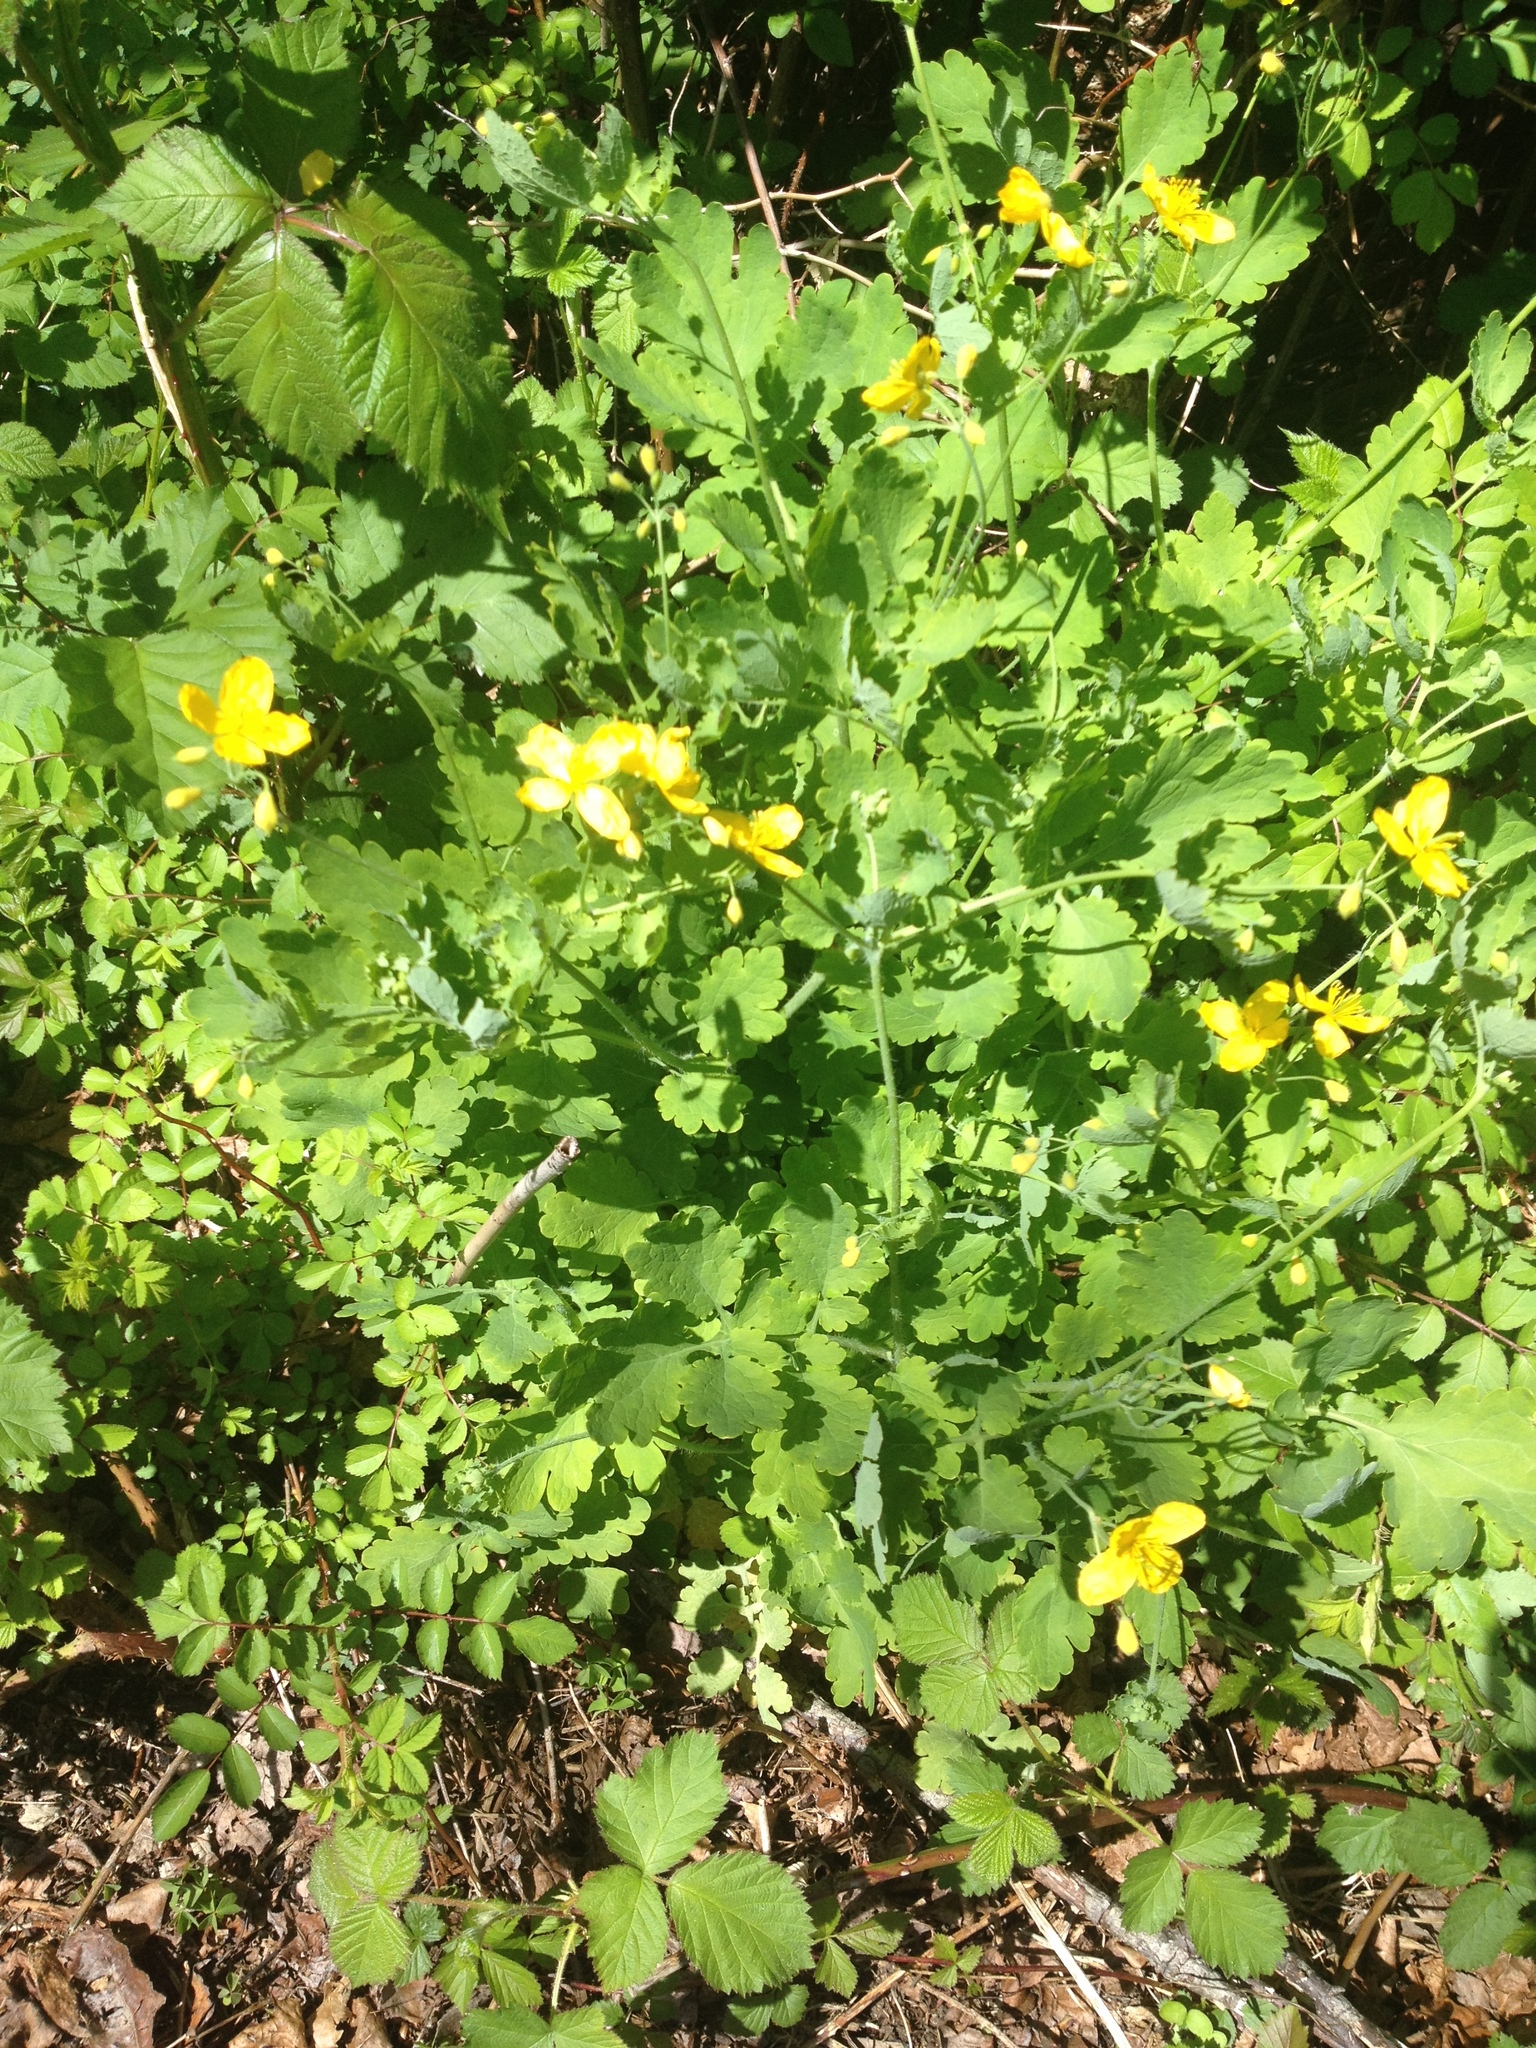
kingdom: Plantae
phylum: Tracheophyta
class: Magnoliopsida
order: Ranunculales
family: Papaveraceae
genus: Chelidonium
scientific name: Chelidonium majus
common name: Greater celandine
